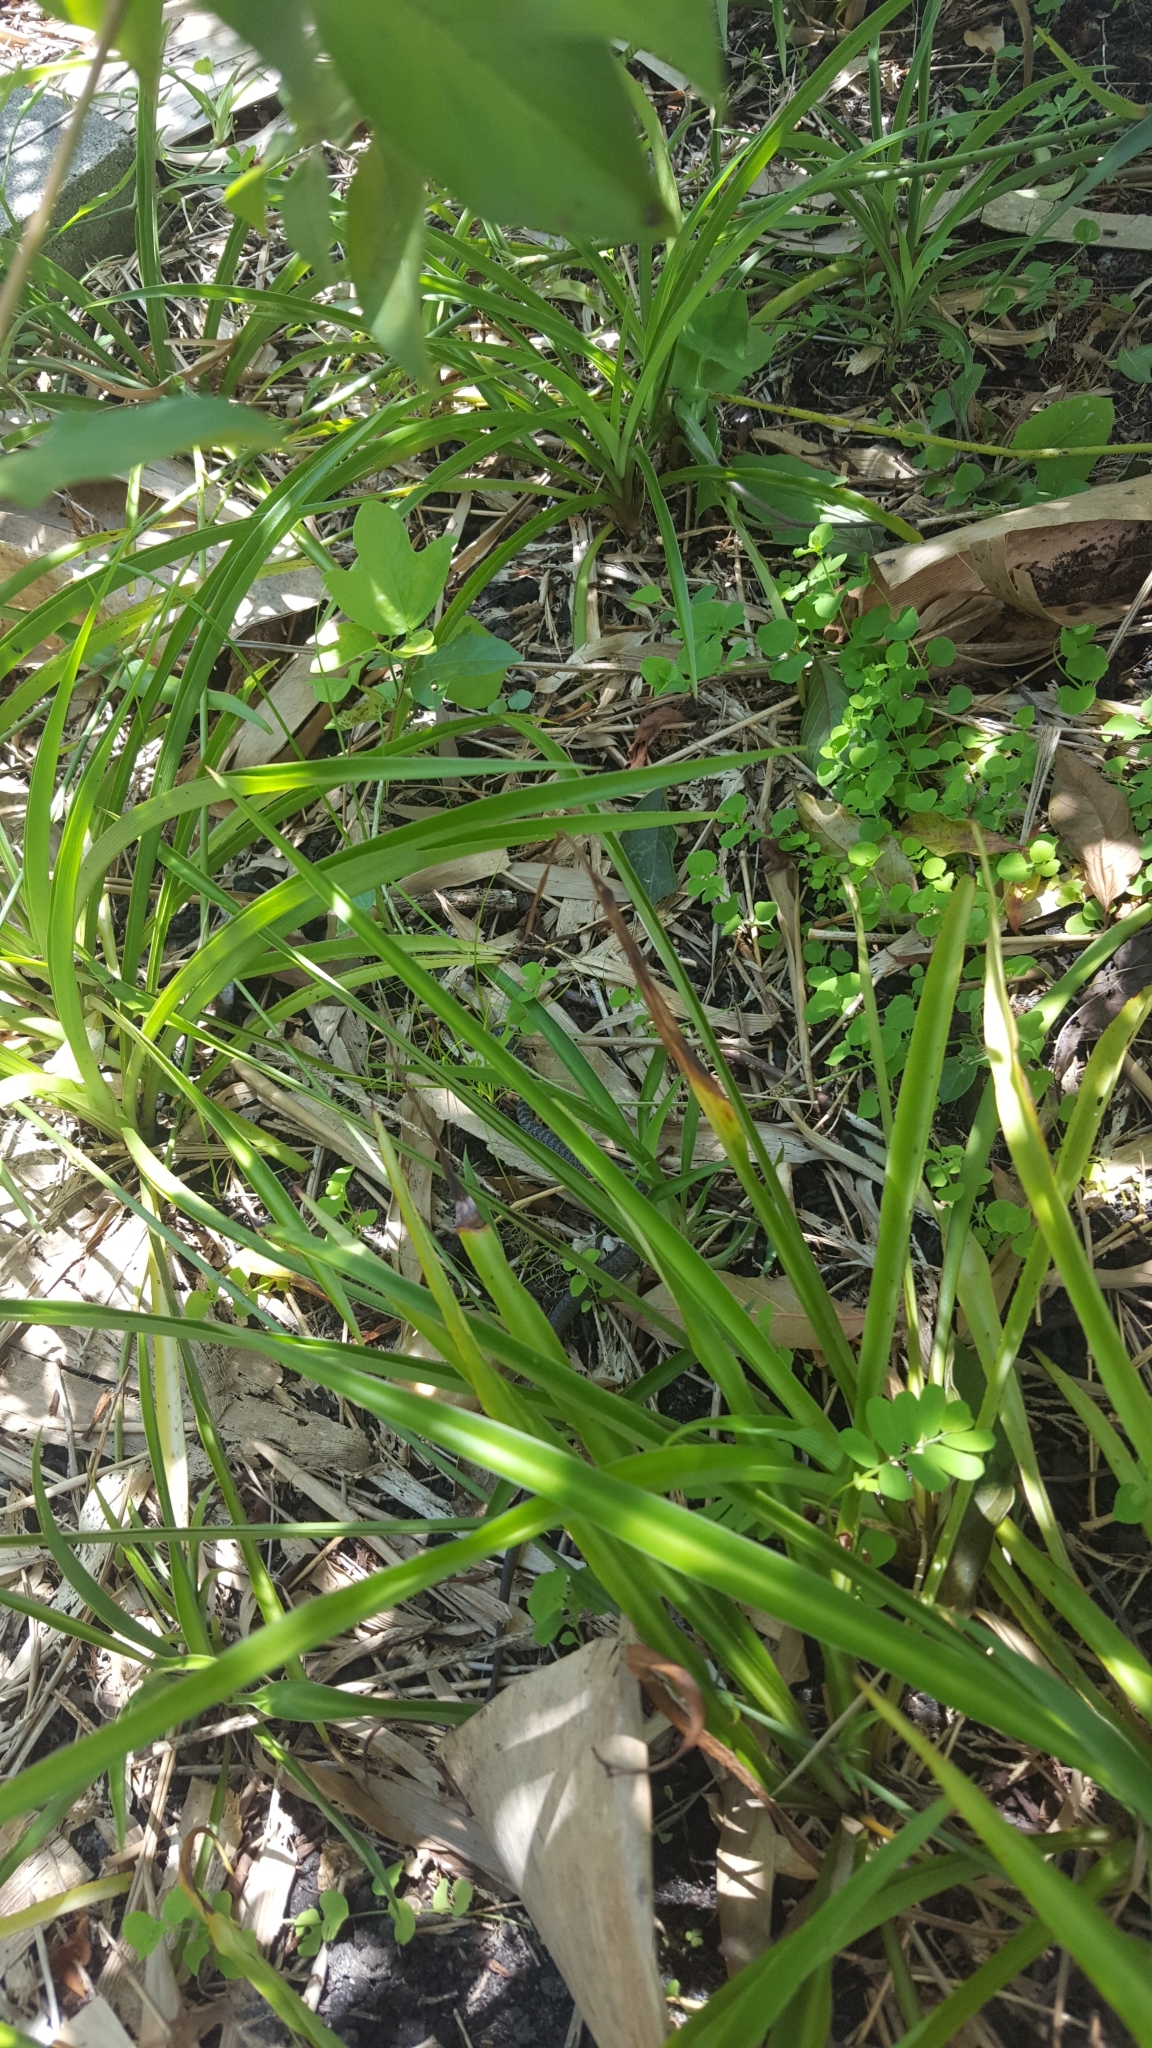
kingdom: Animalia
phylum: Chordata
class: Squamata
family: Colubridae
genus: Coluber
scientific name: Coluber constrictor
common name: Eastern racer
